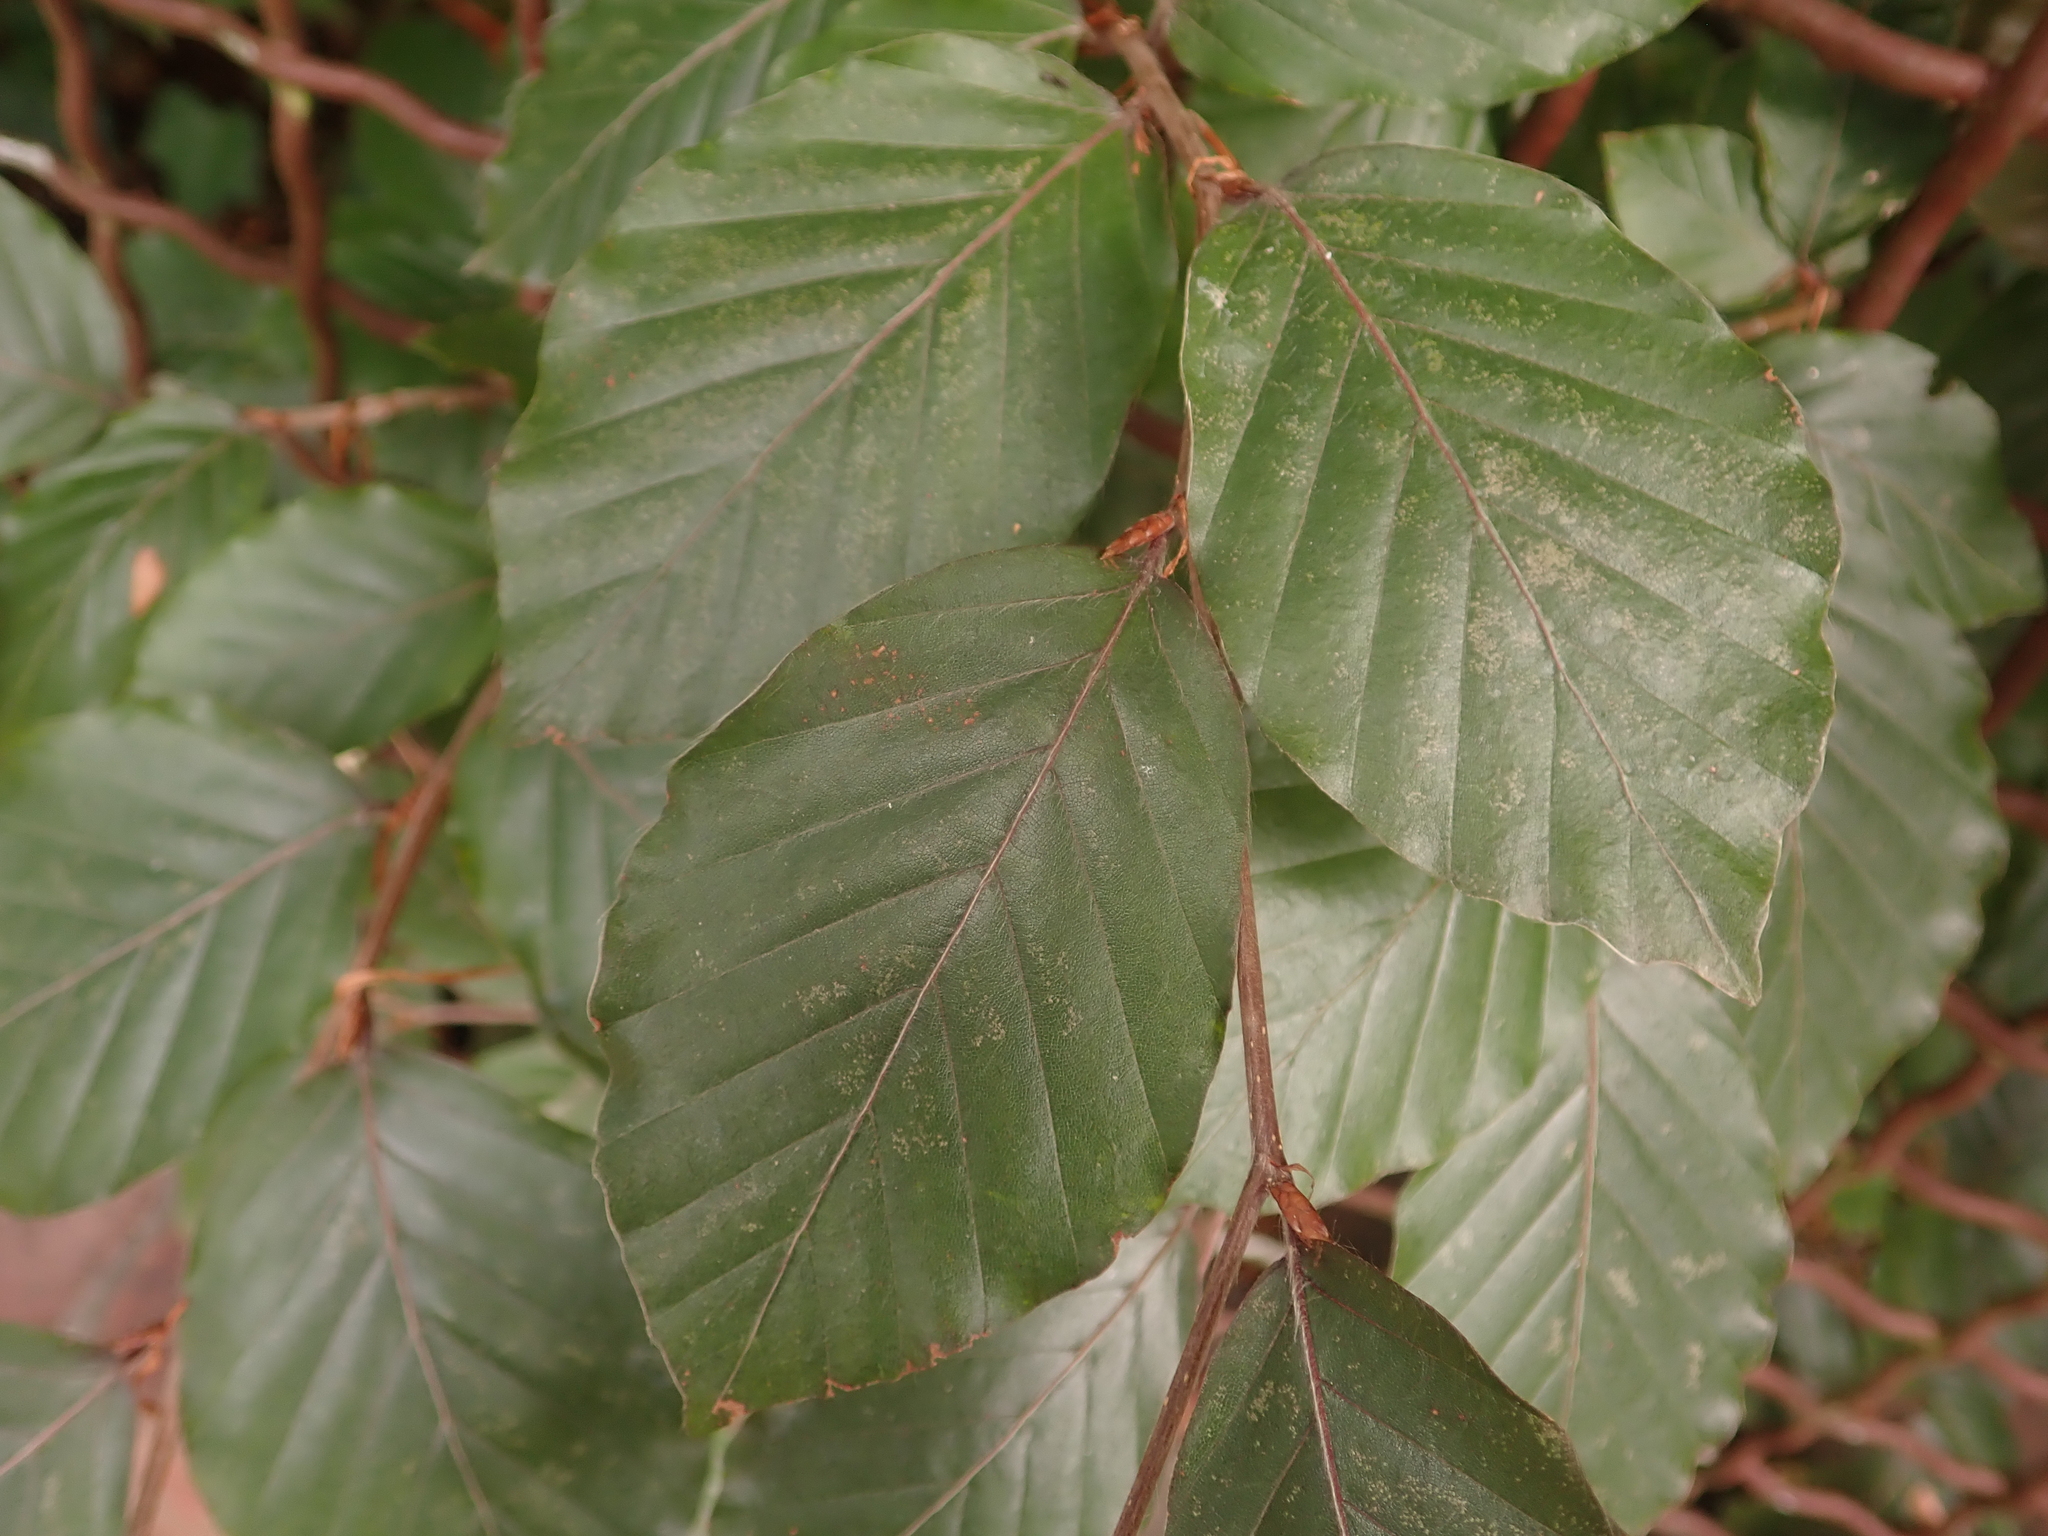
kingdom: Plantae
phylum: Tracheophyta
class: Magnoliopsida
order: Fagales
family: Fagaceae
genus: Fagus
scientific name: Fagus sylvatica
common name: Beech
